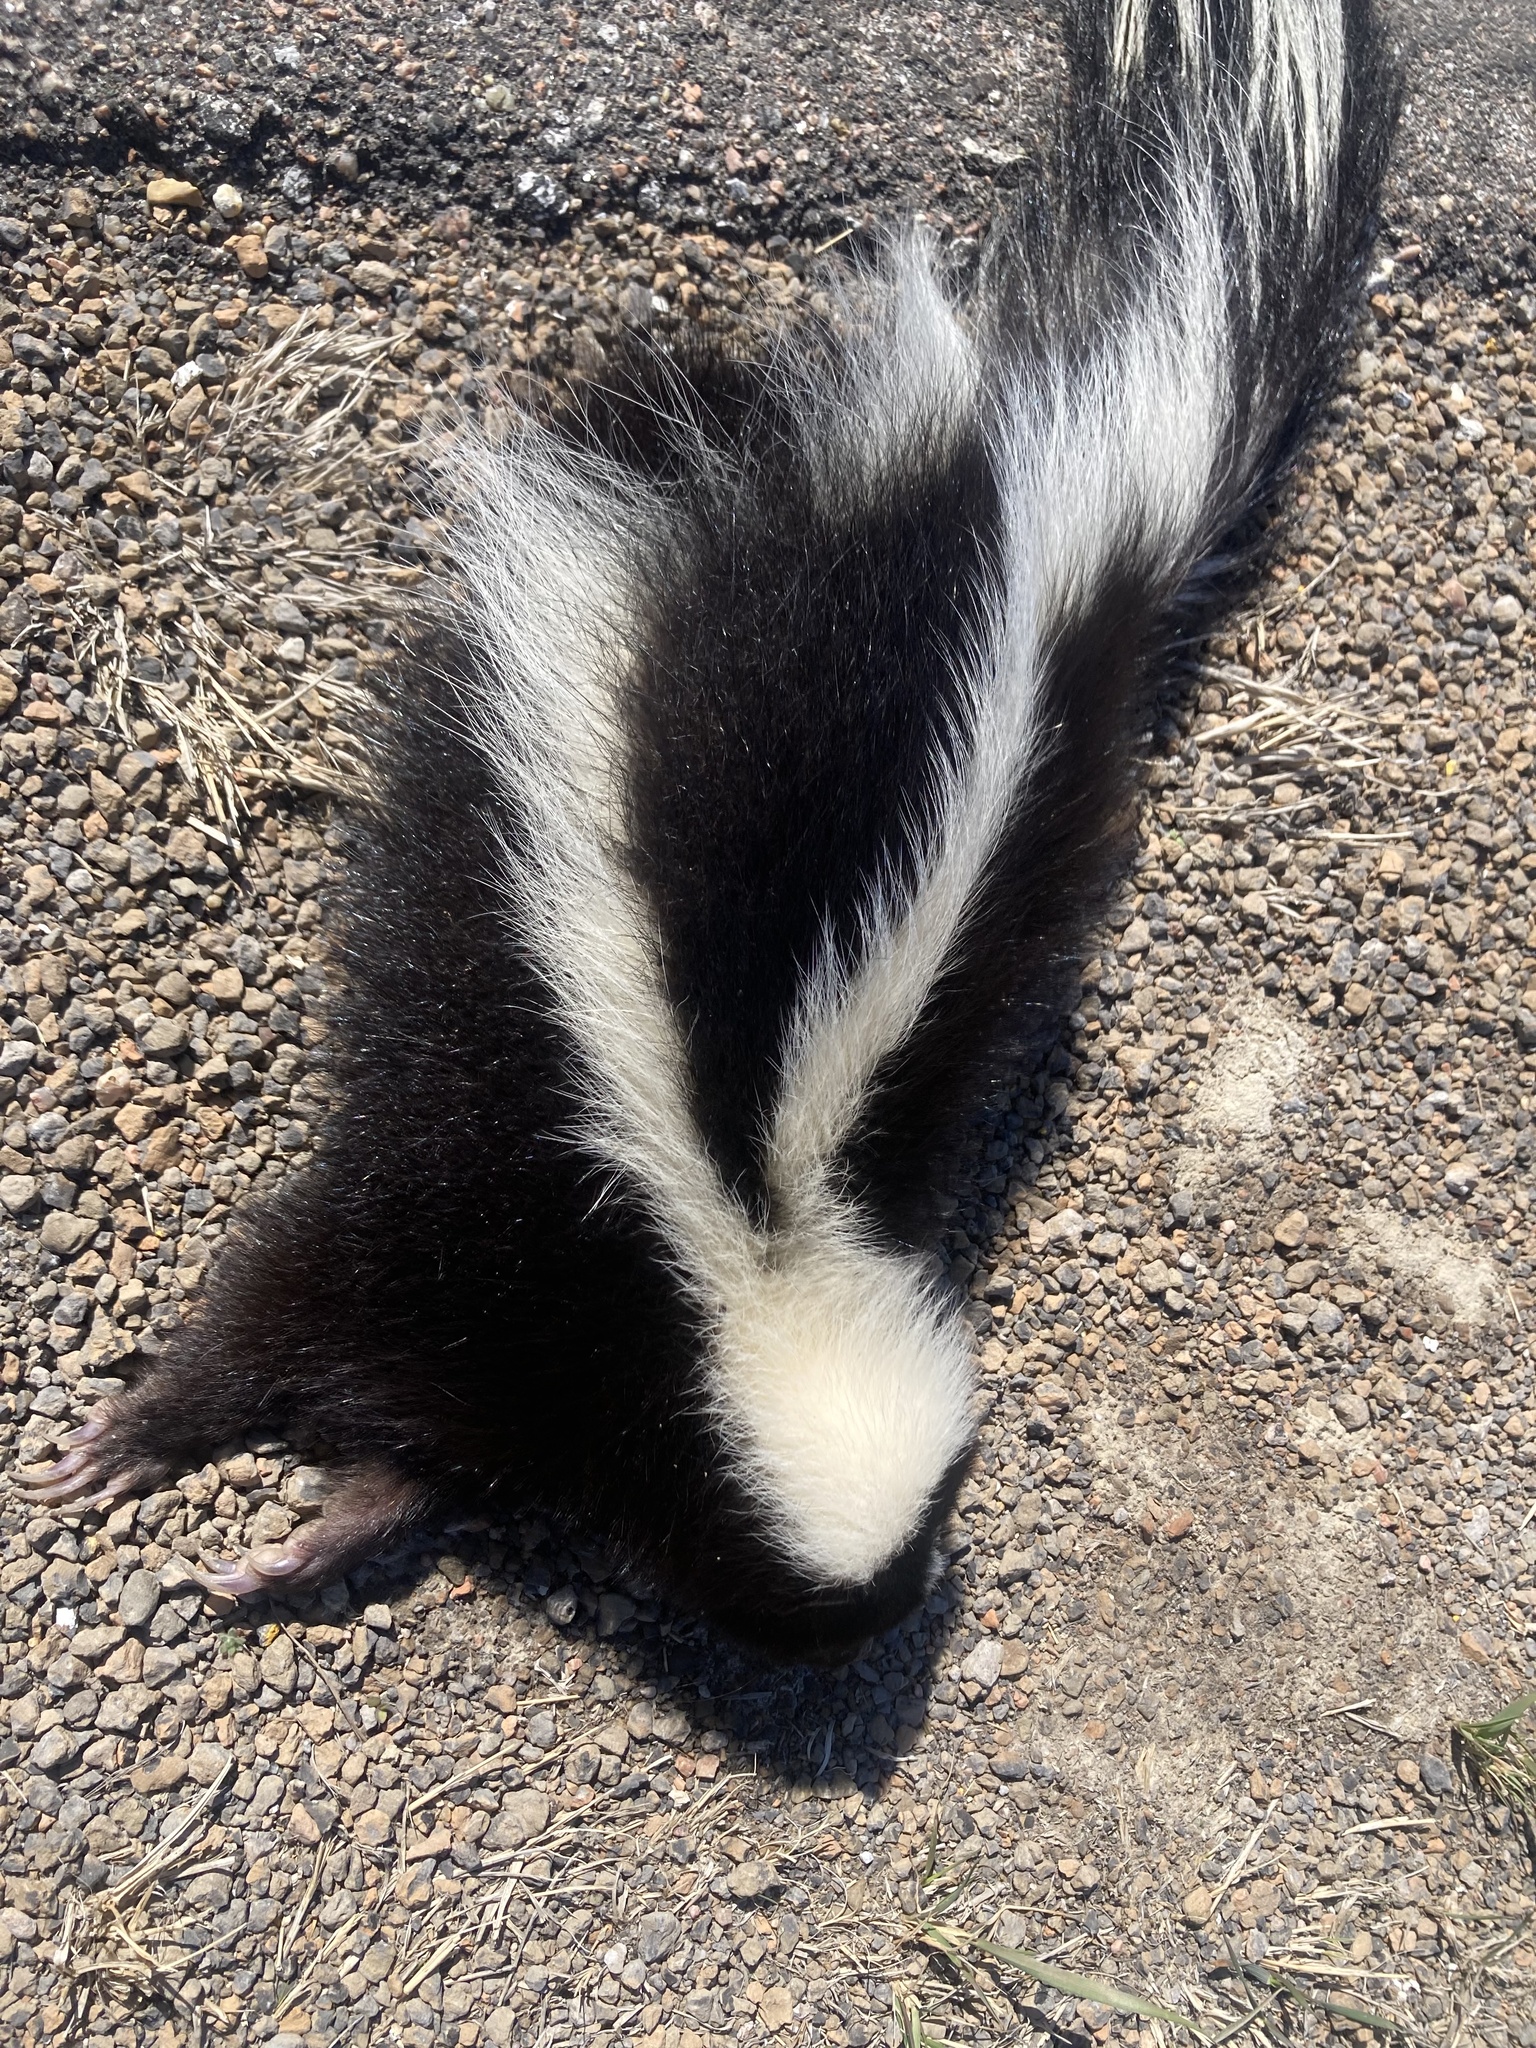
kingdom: Animalia
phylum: Chordata
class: Mammalia
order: Carnivora
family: Mephitidae
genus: Mephitis
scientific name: Mephitis mephitis
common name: Striped skunk
